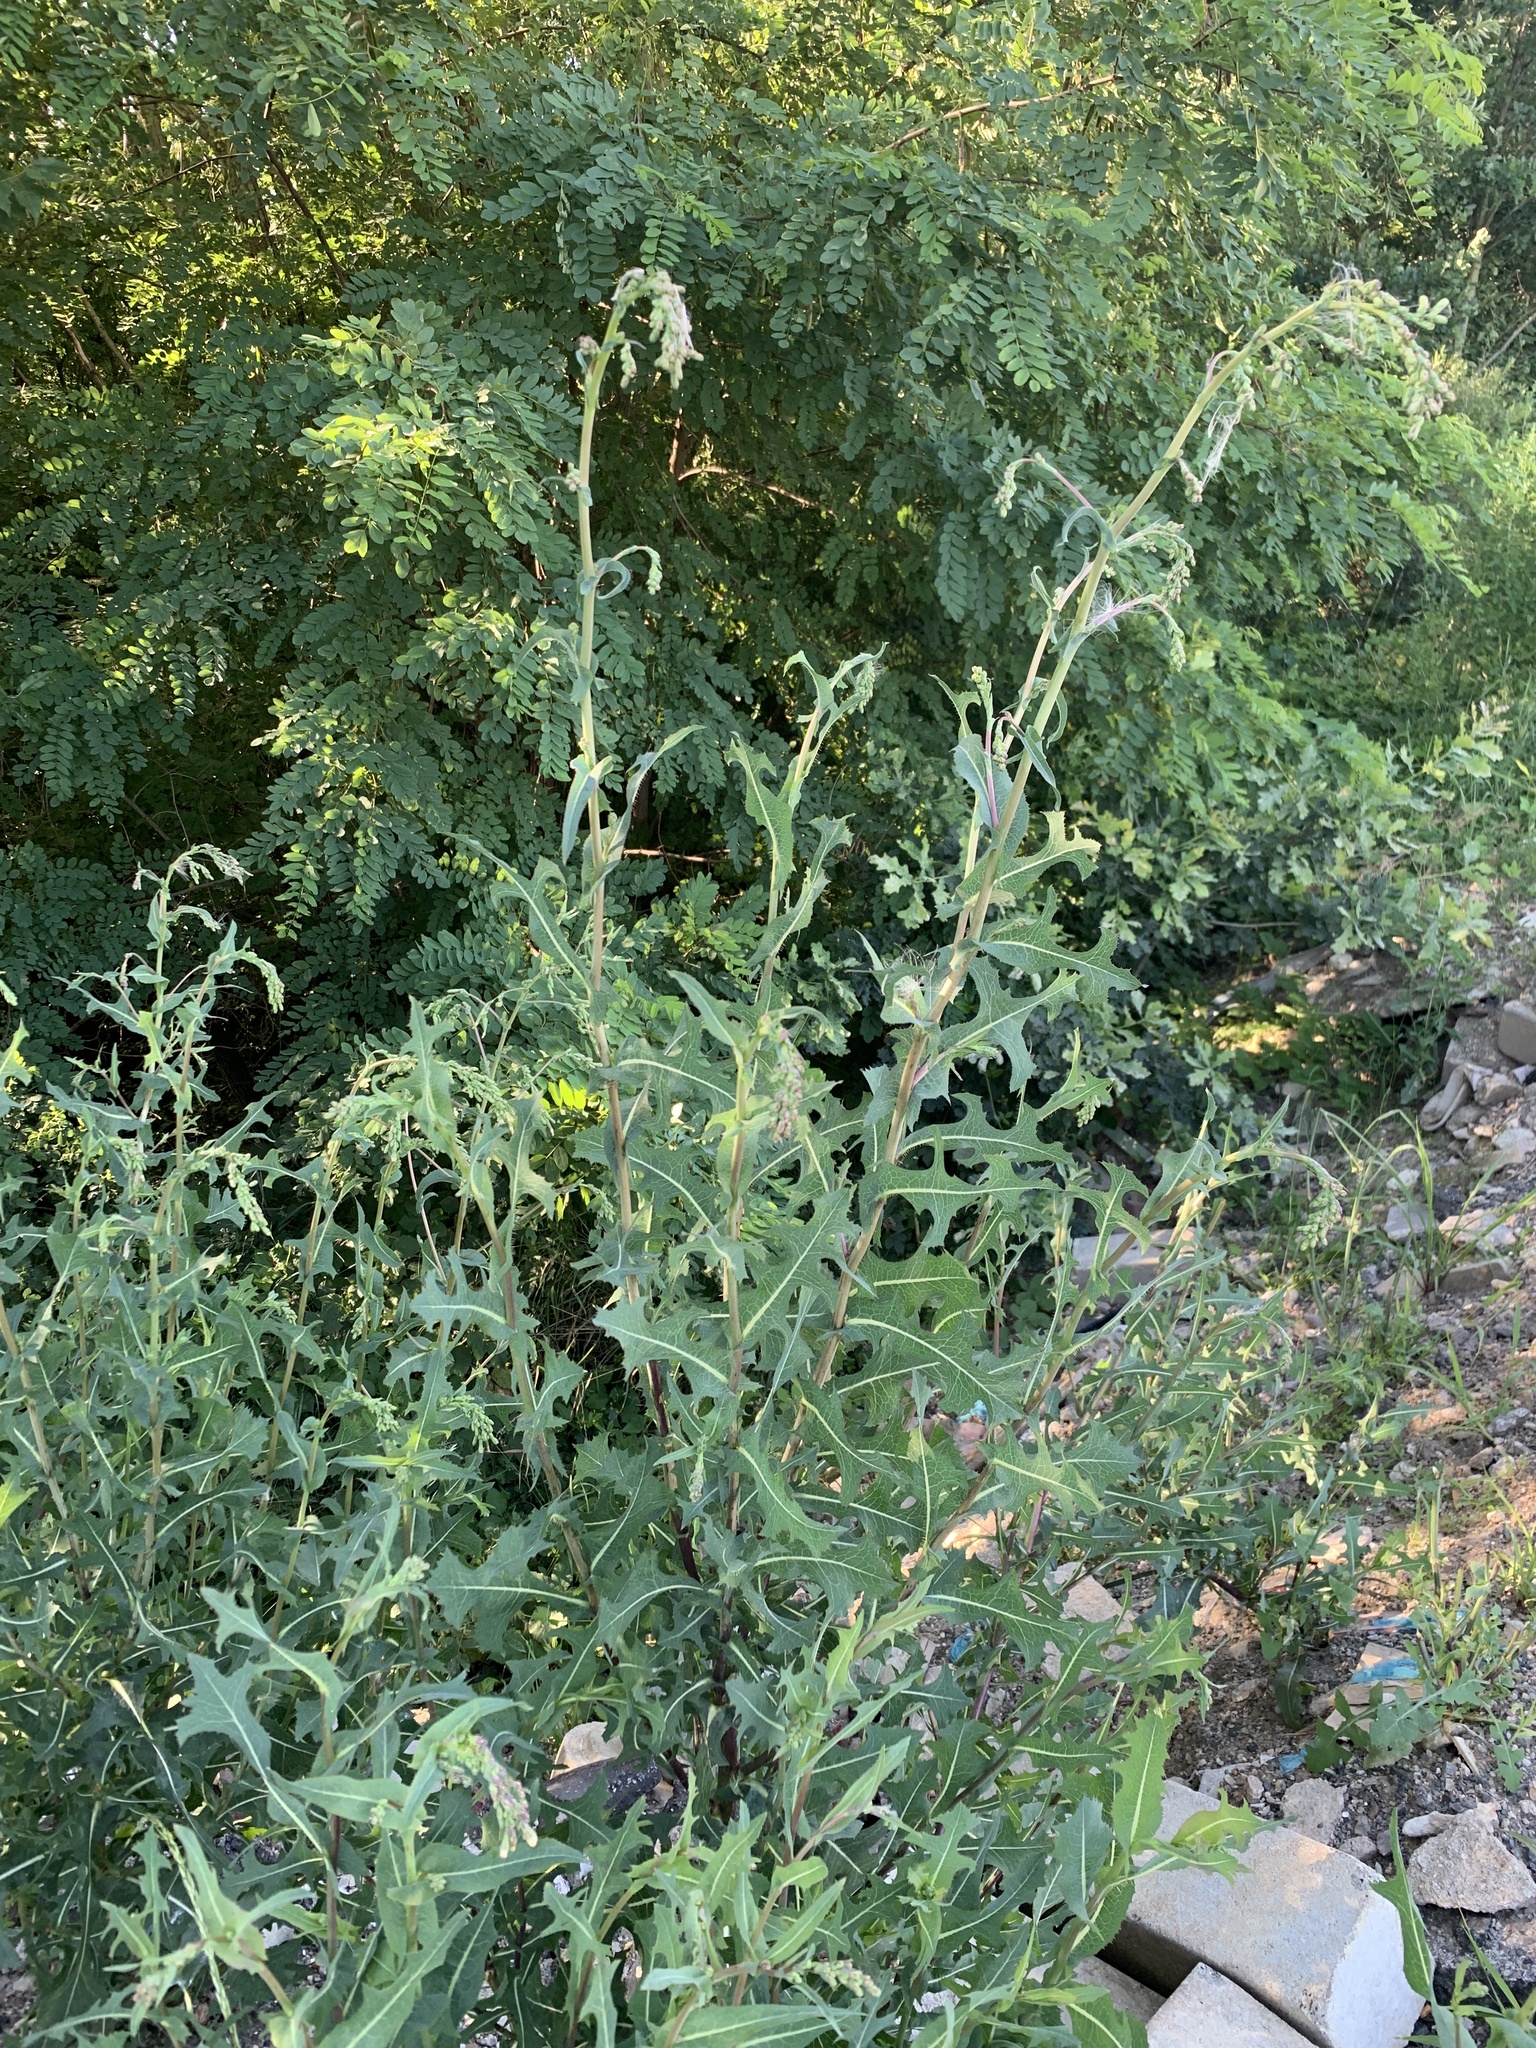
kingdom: Plantae
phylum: Tracheophyta
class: Magnoliopsida
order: Asterales
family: Asteraceae
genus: Lactuca
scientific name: Lactuca serriola
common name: Prickly lettuce
